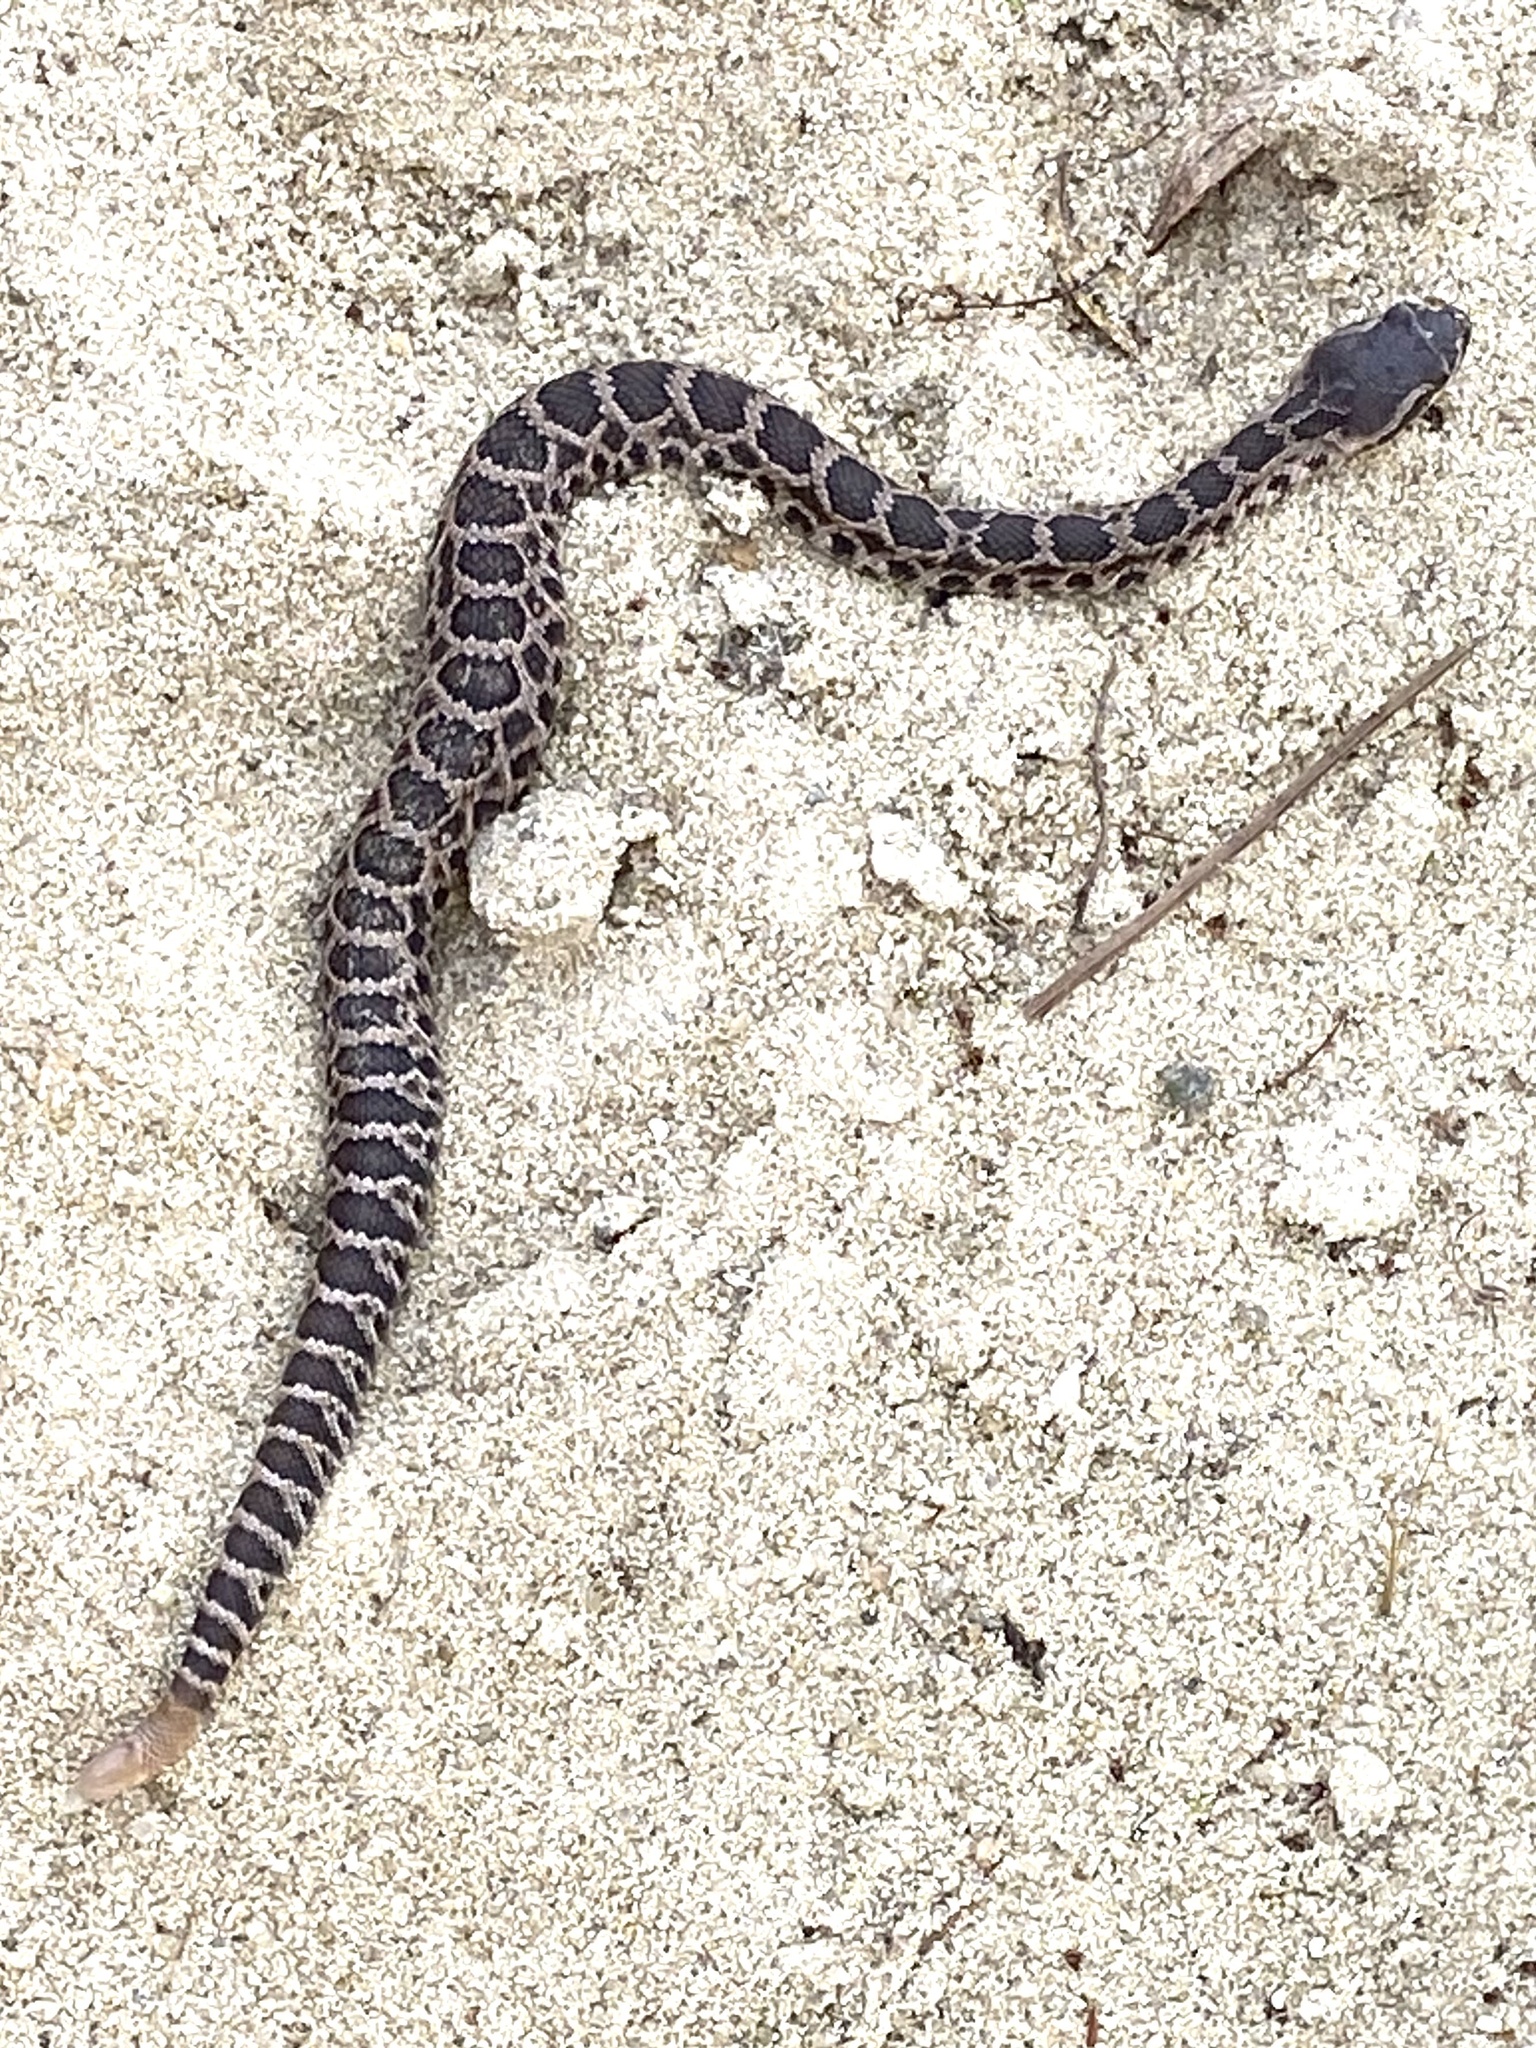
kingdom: Animalia
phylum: Chordata
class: Squamata
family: Viperidae
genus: Crotalus
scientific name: Crotalus oreganus
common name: Abyssus
